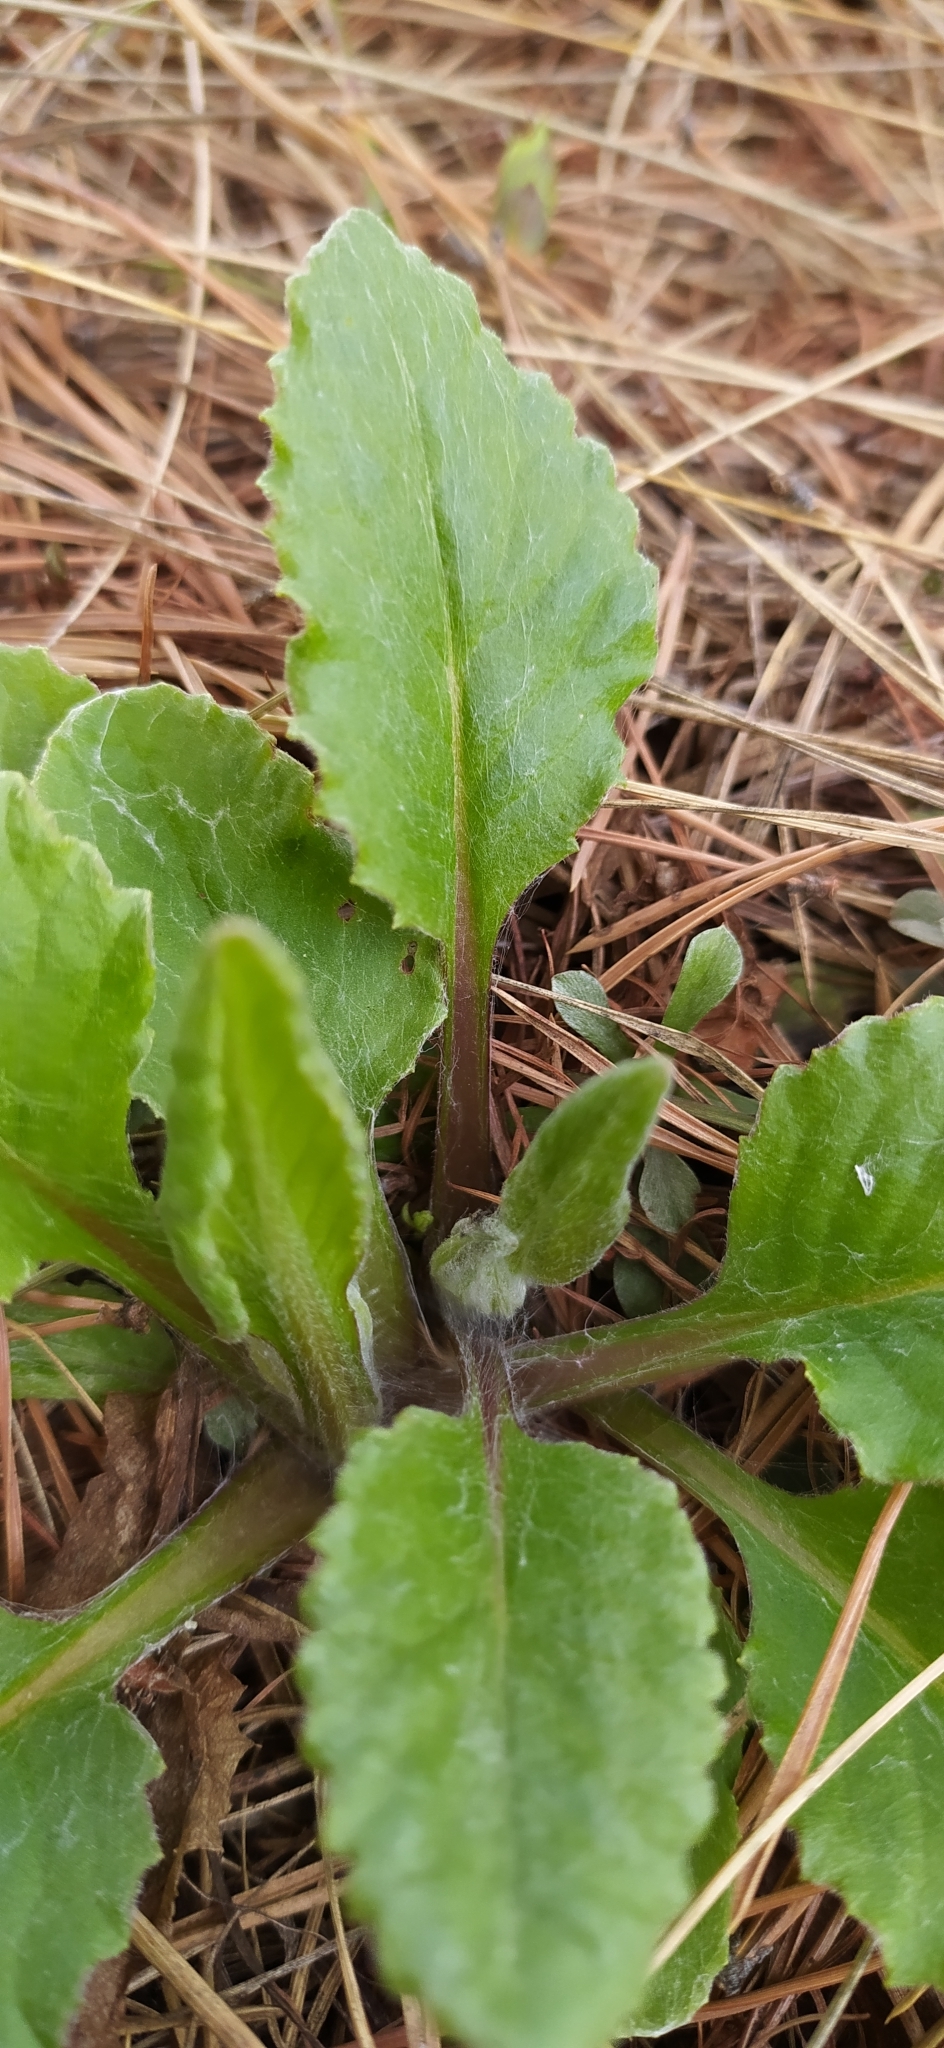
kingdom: Plantae
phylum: Tracheophyta
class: Magnoliopsida
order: Asterales
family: Asteraceae
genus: Tephroseris
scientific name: Tephroseris integrifolia
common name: Field fleawort
